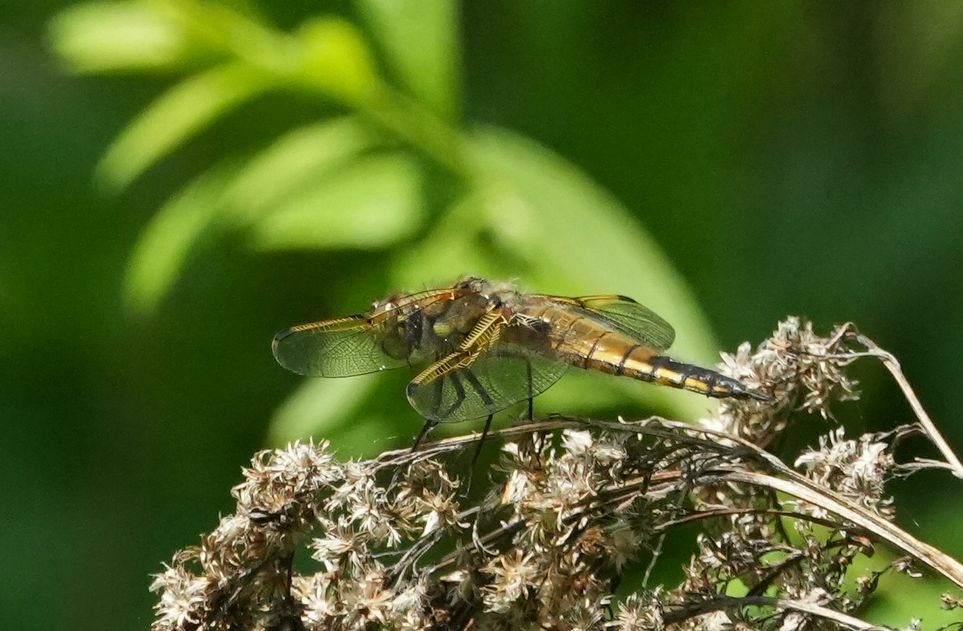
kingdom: Animalia
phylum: Arthropoda
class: Insecta
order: Odonata
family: Libellulidae
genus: Libellula
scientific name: Libellula quadrimaculata
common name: Four-spotted chaser
